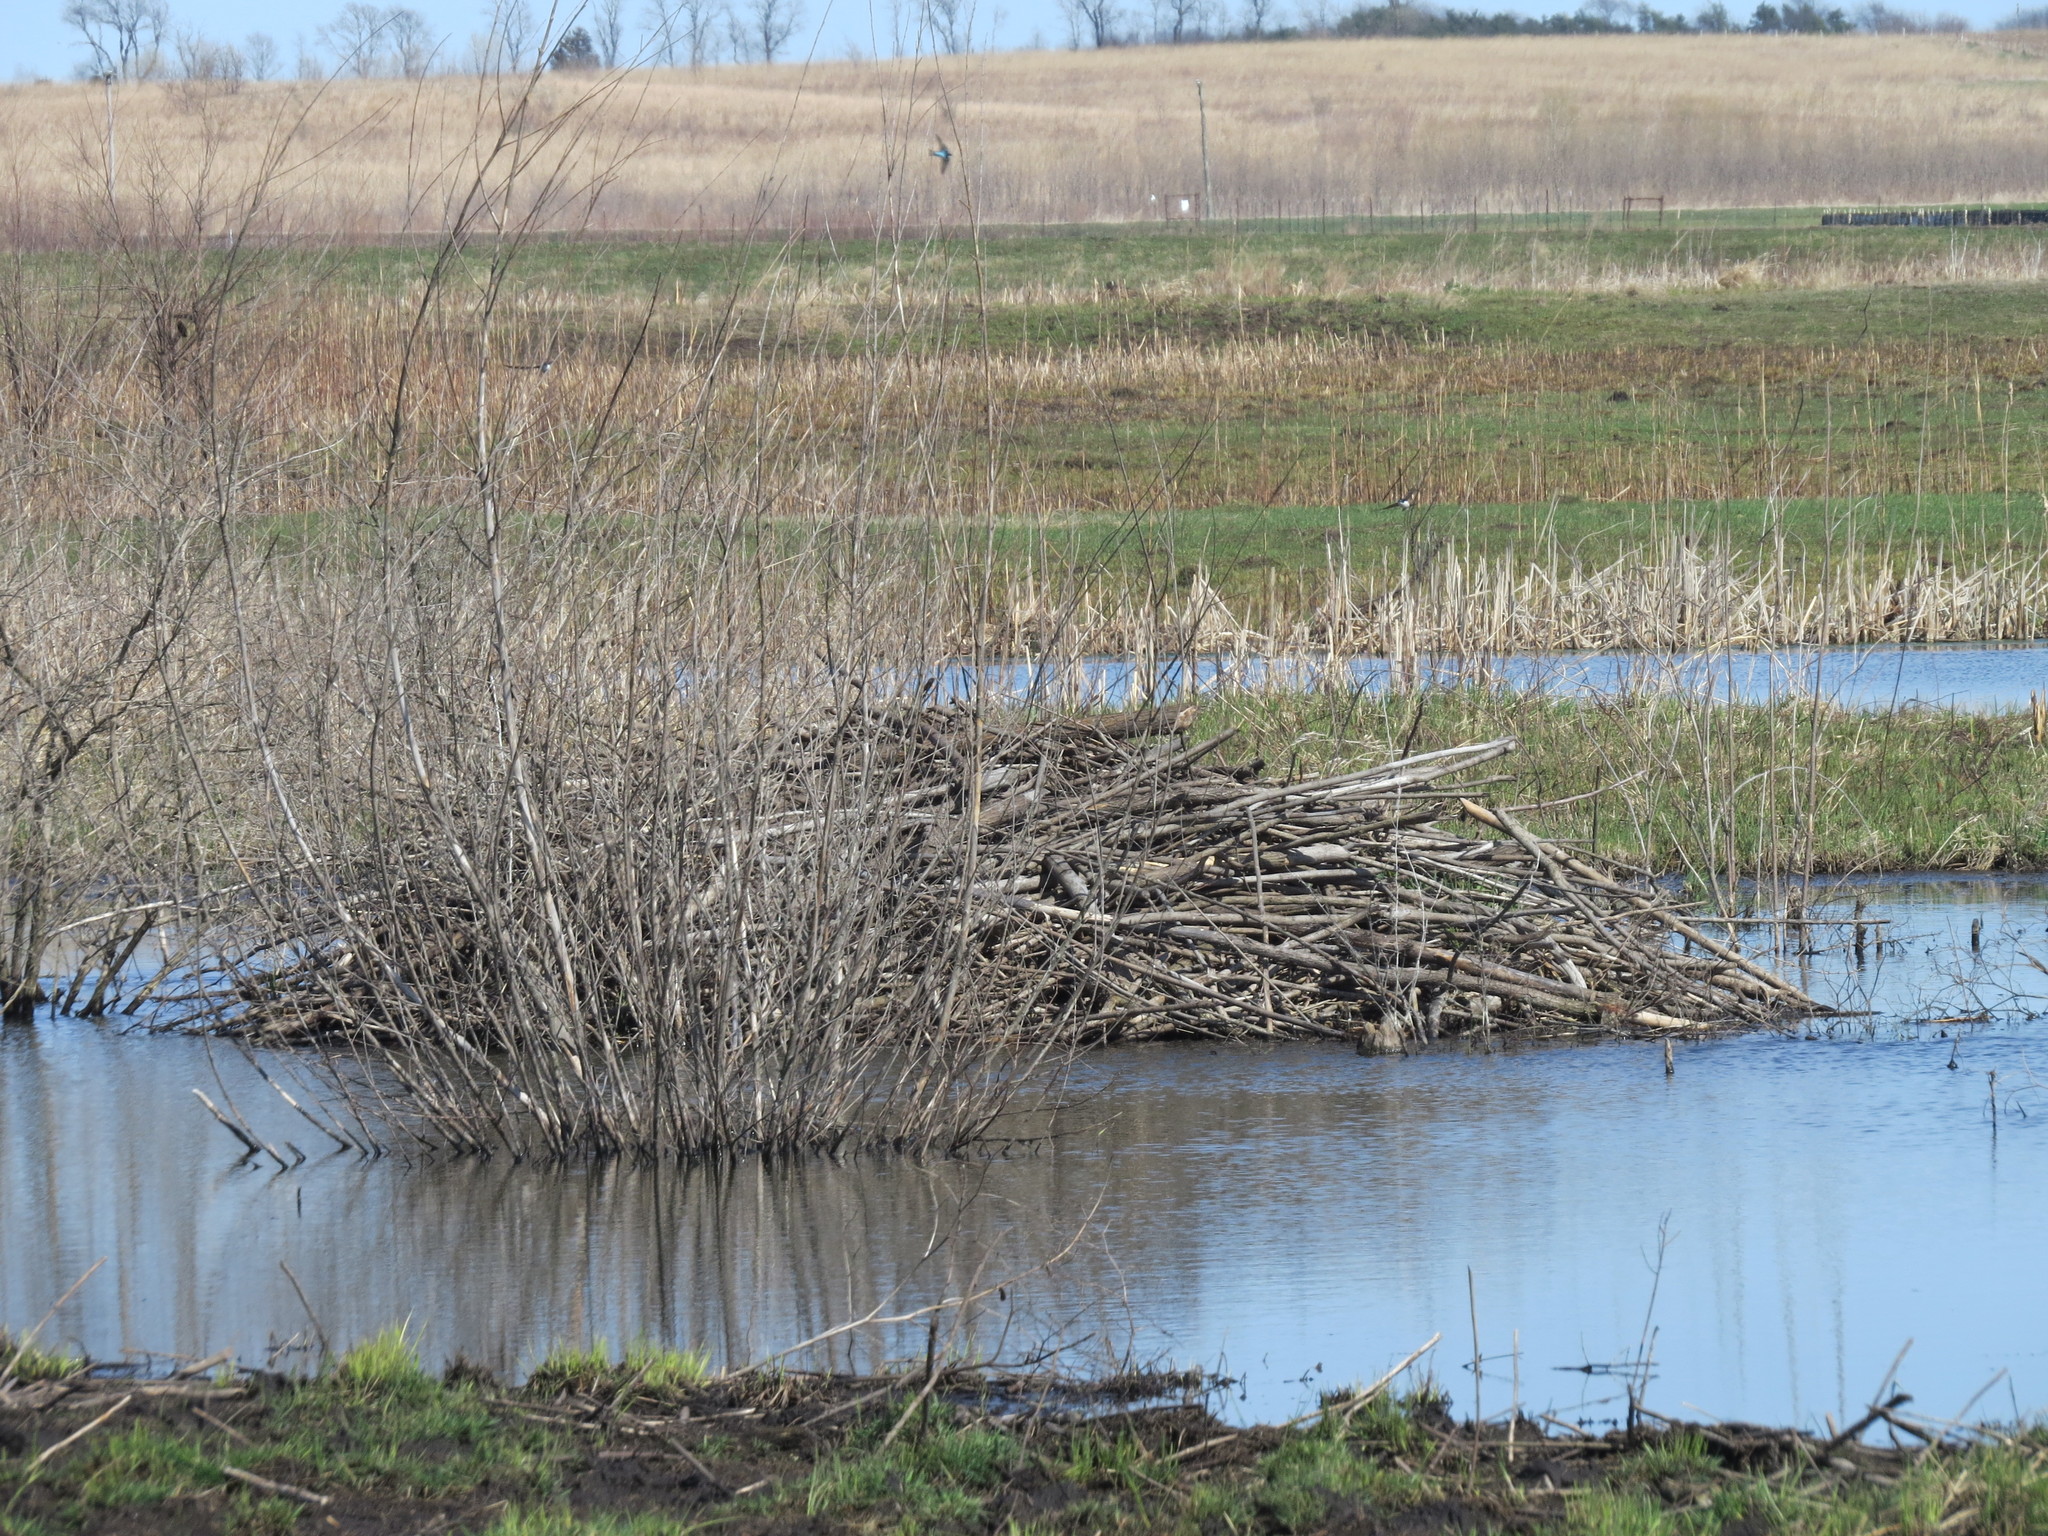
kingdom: Animalia
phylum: Chordata
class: Mammalia
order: Rodentia
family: Castoridae
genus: Castor
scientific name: Castor canadensis
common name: American beaver
